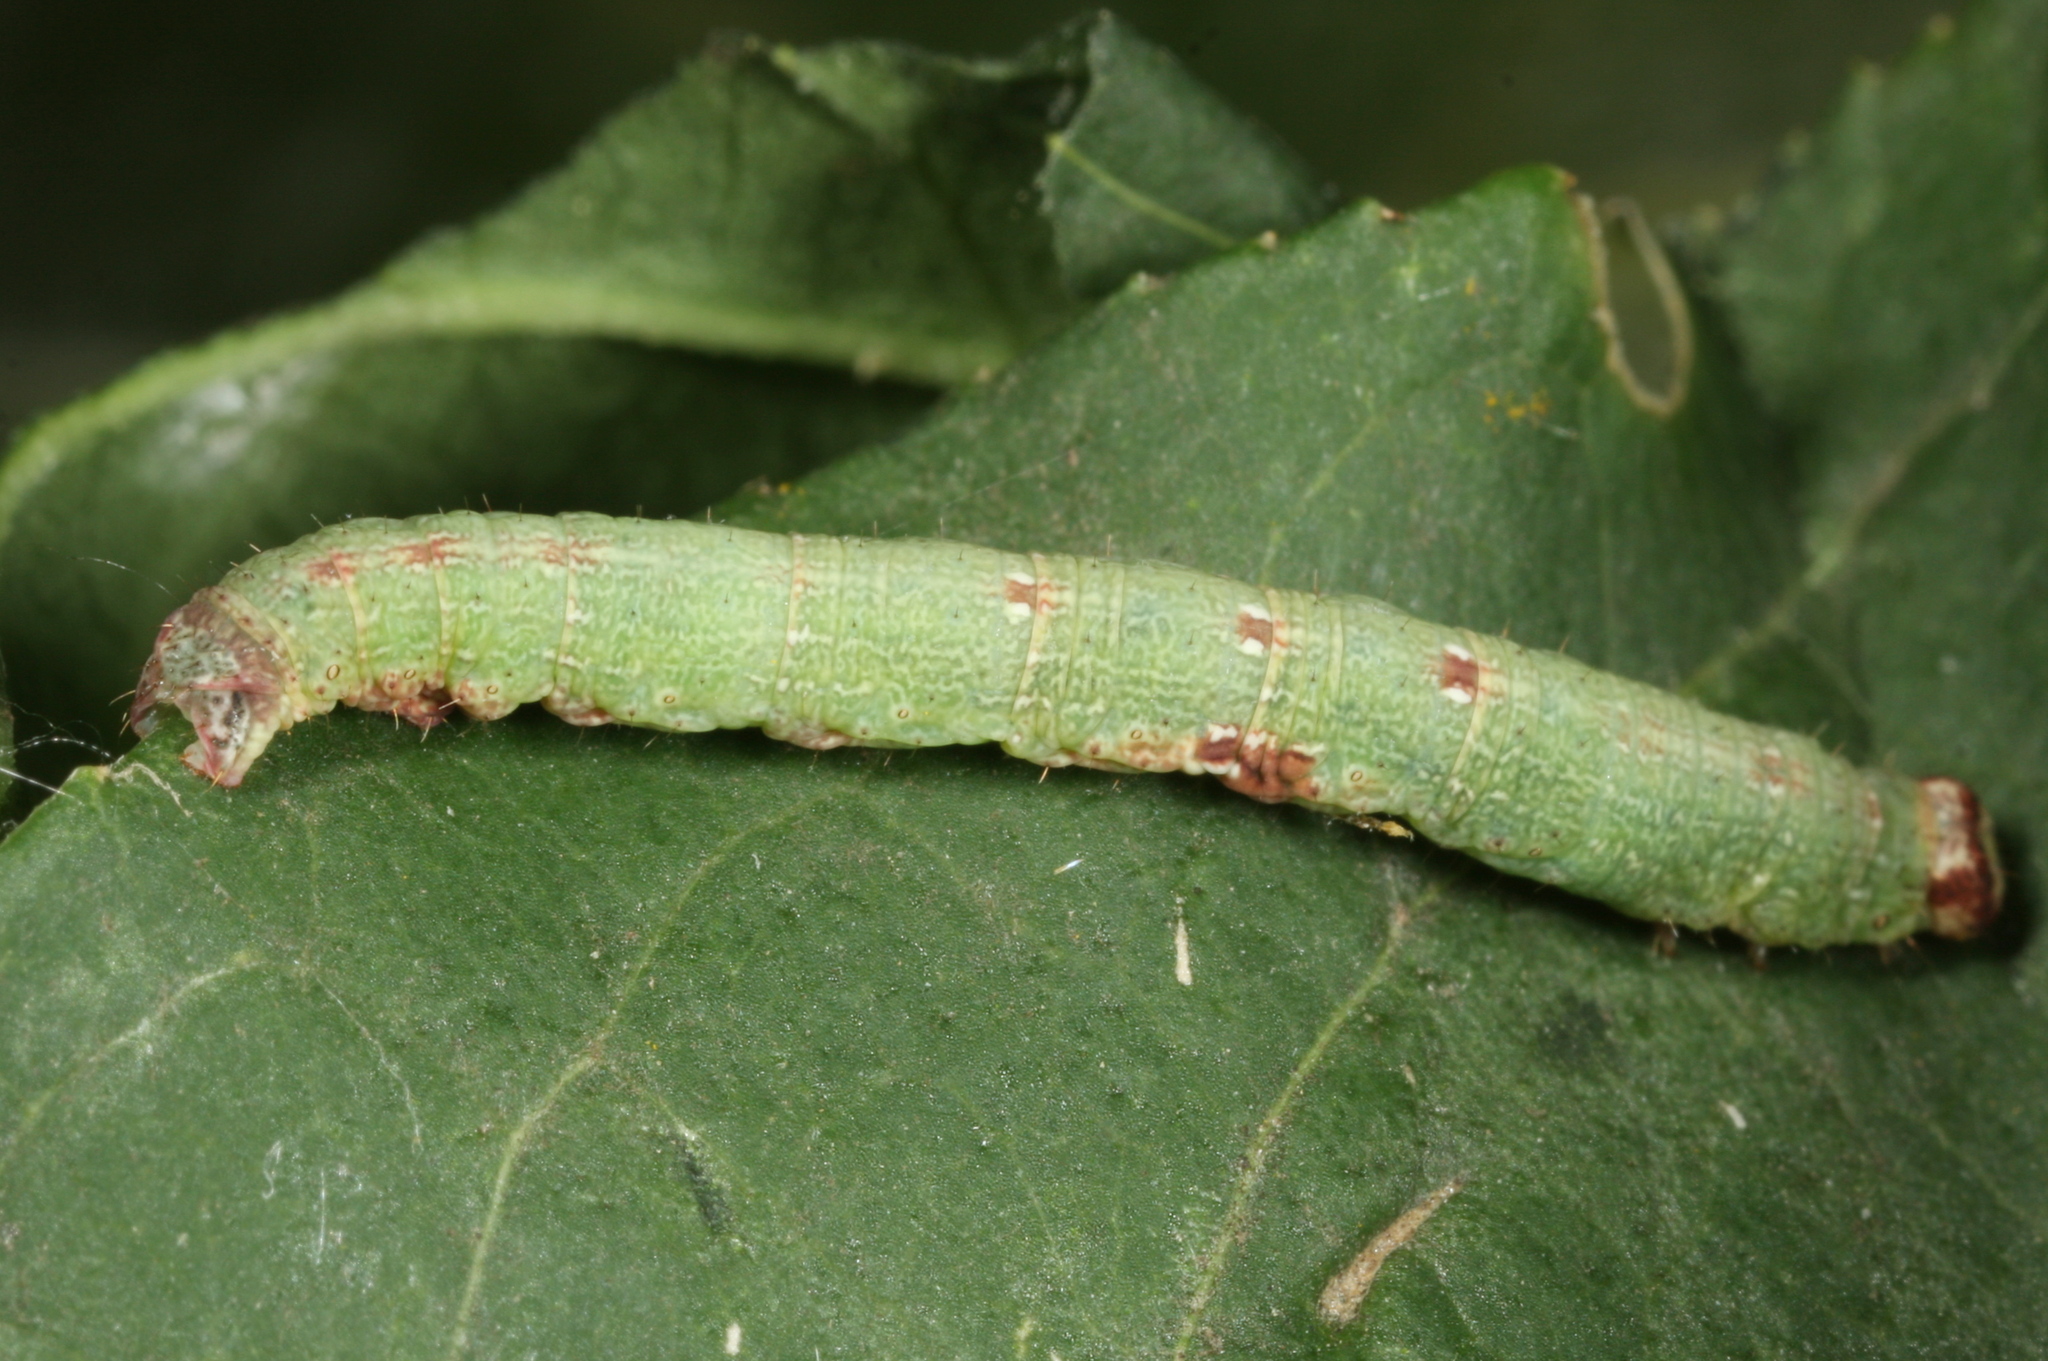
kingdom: Animalia
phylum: Arthropoda
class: Insecta
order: Lepidoptera
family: Geometridae
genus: Ligdia
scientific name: Ligdia adustata
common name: Scorched carpet
